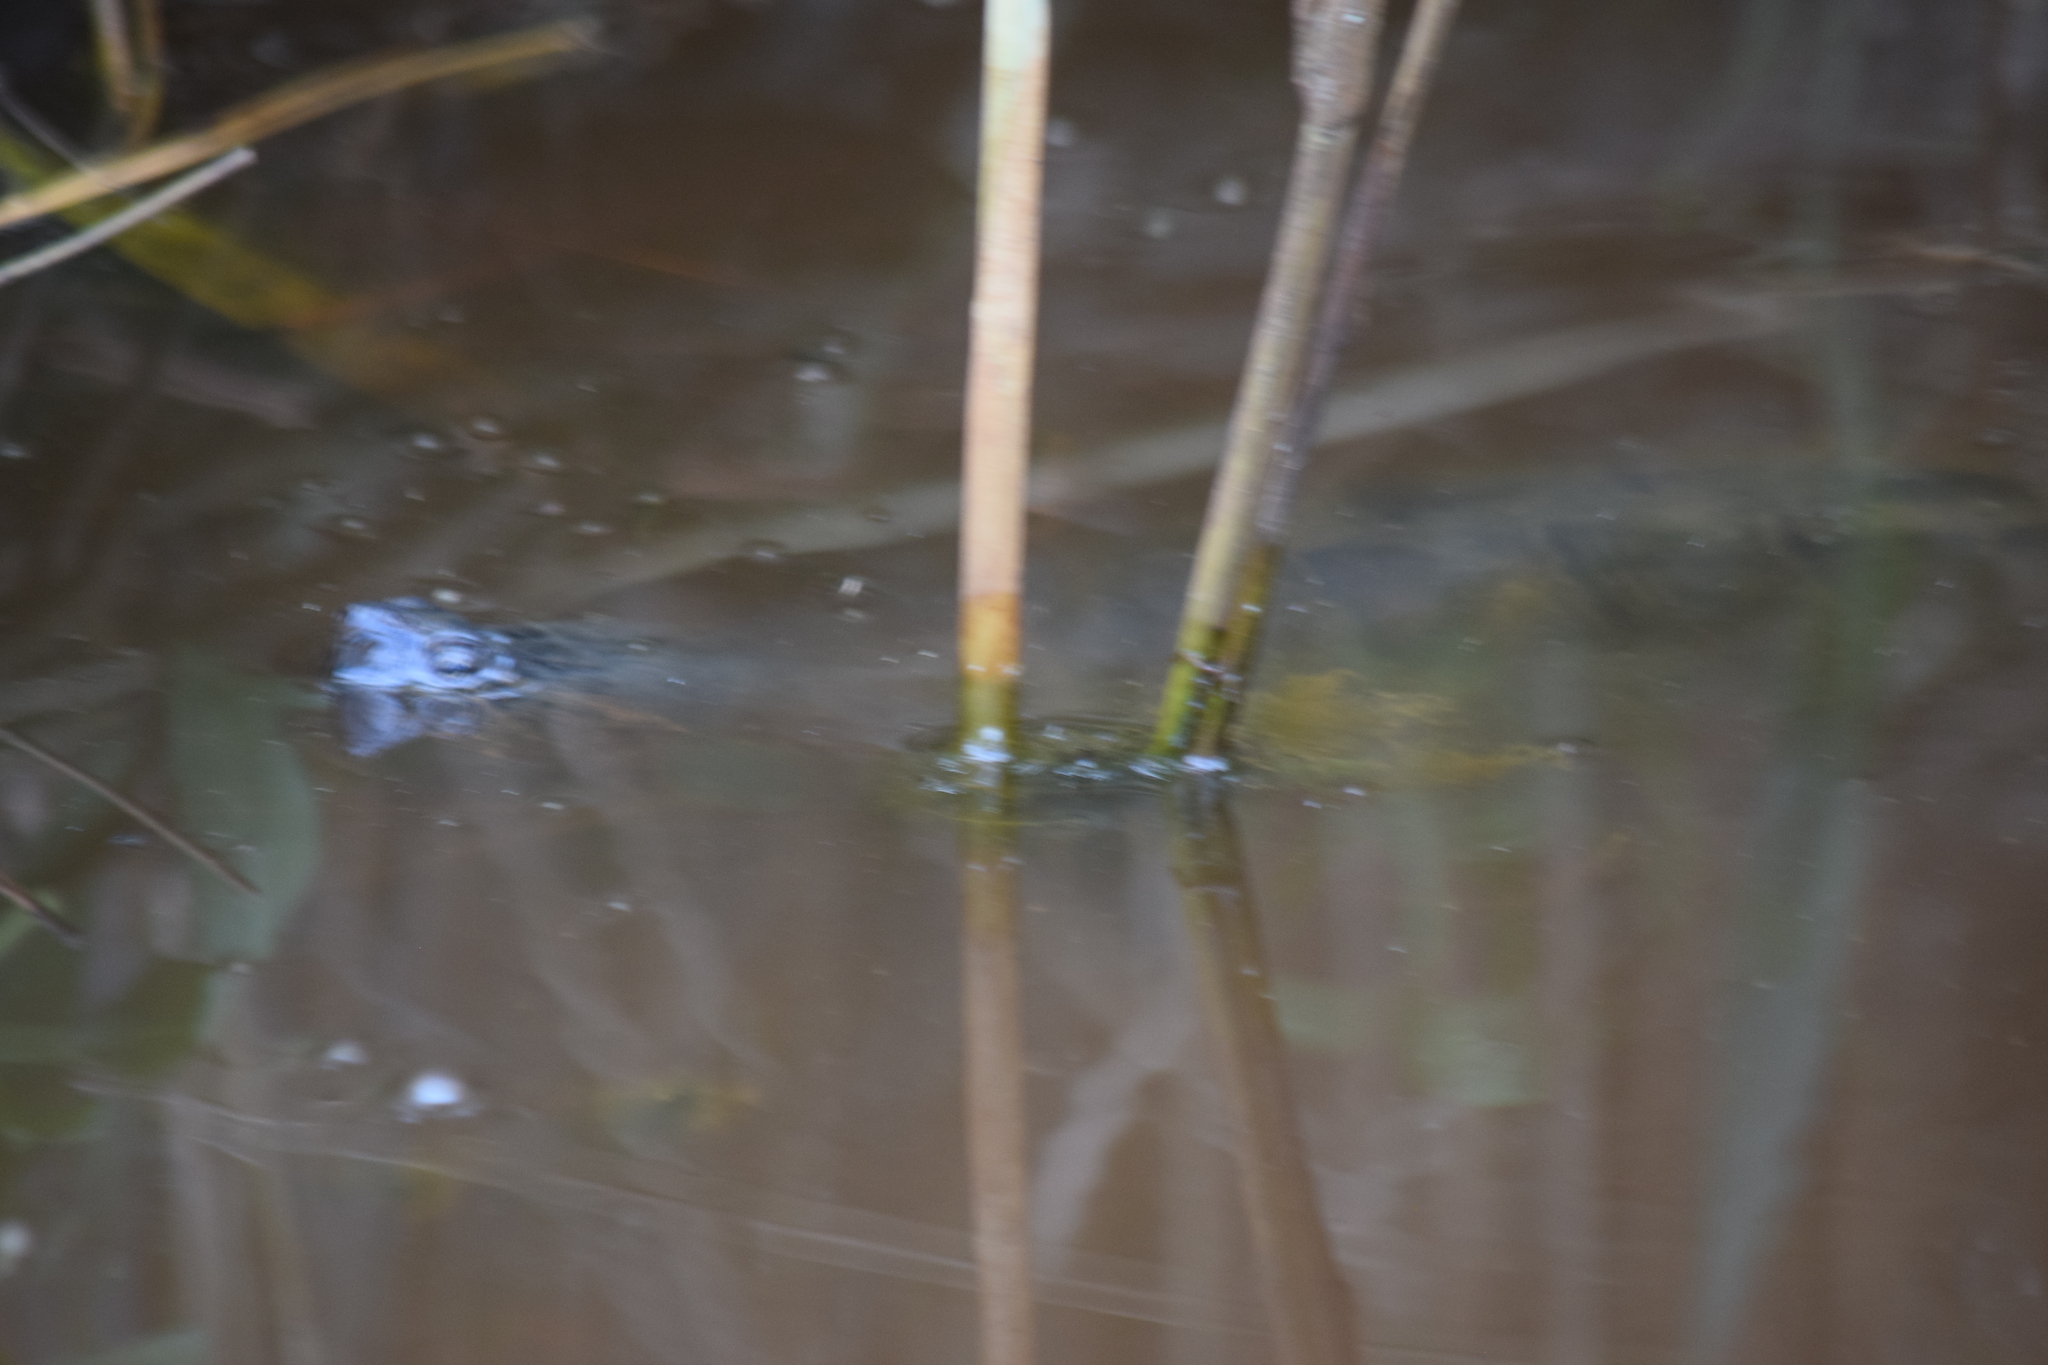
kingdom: Animalia
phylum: Chordata
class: Testudines
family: Chelydridae
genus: Chelydra
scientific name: Chelydra serpentina
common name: Common snapping turtle
